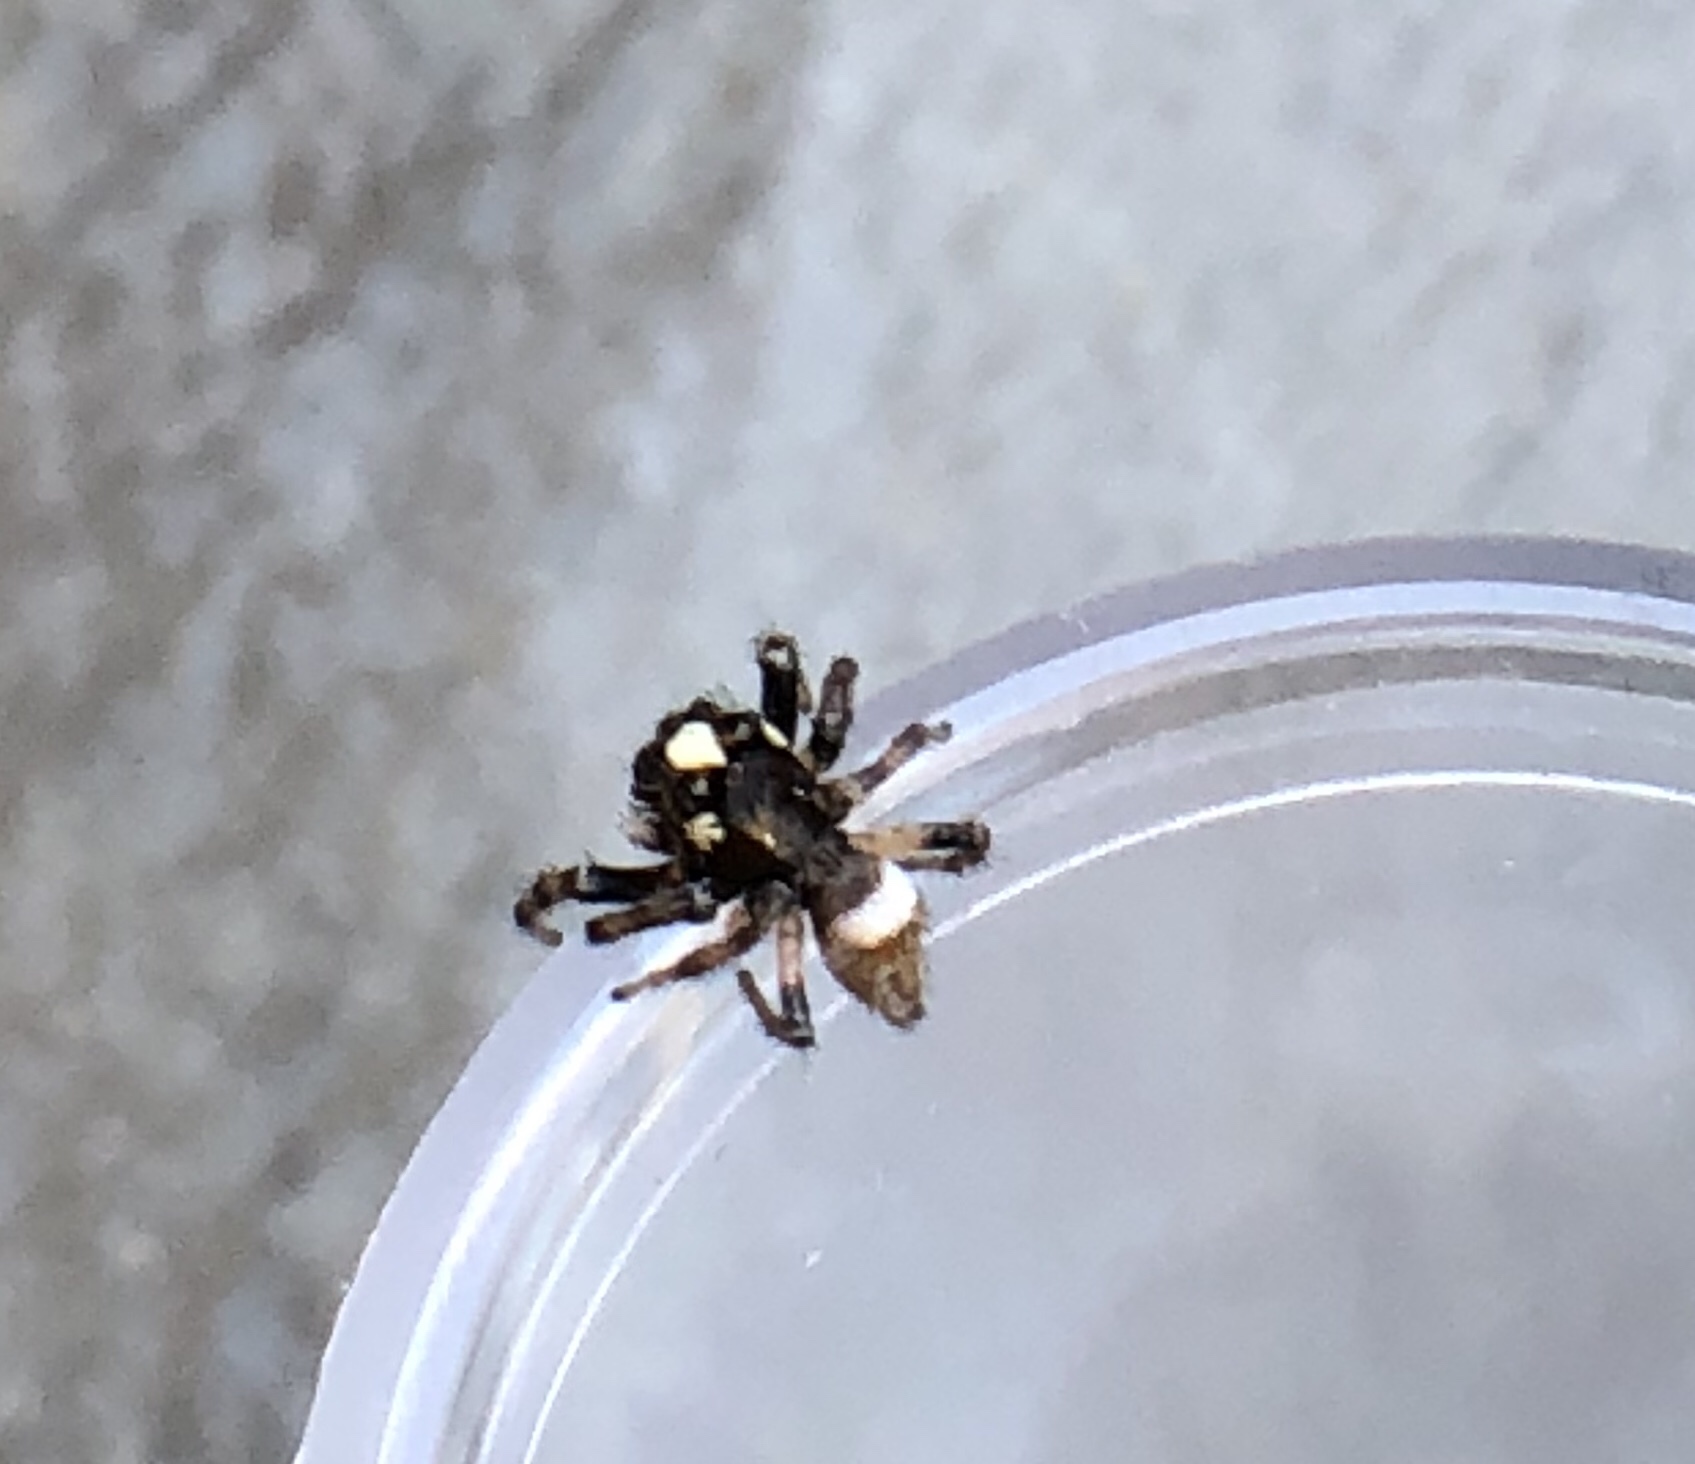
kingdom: Animalia
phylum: Arthropoda
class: Arachnida
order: Araneae
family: Salticidae
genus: Colonus
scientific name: Colonus hesperus
